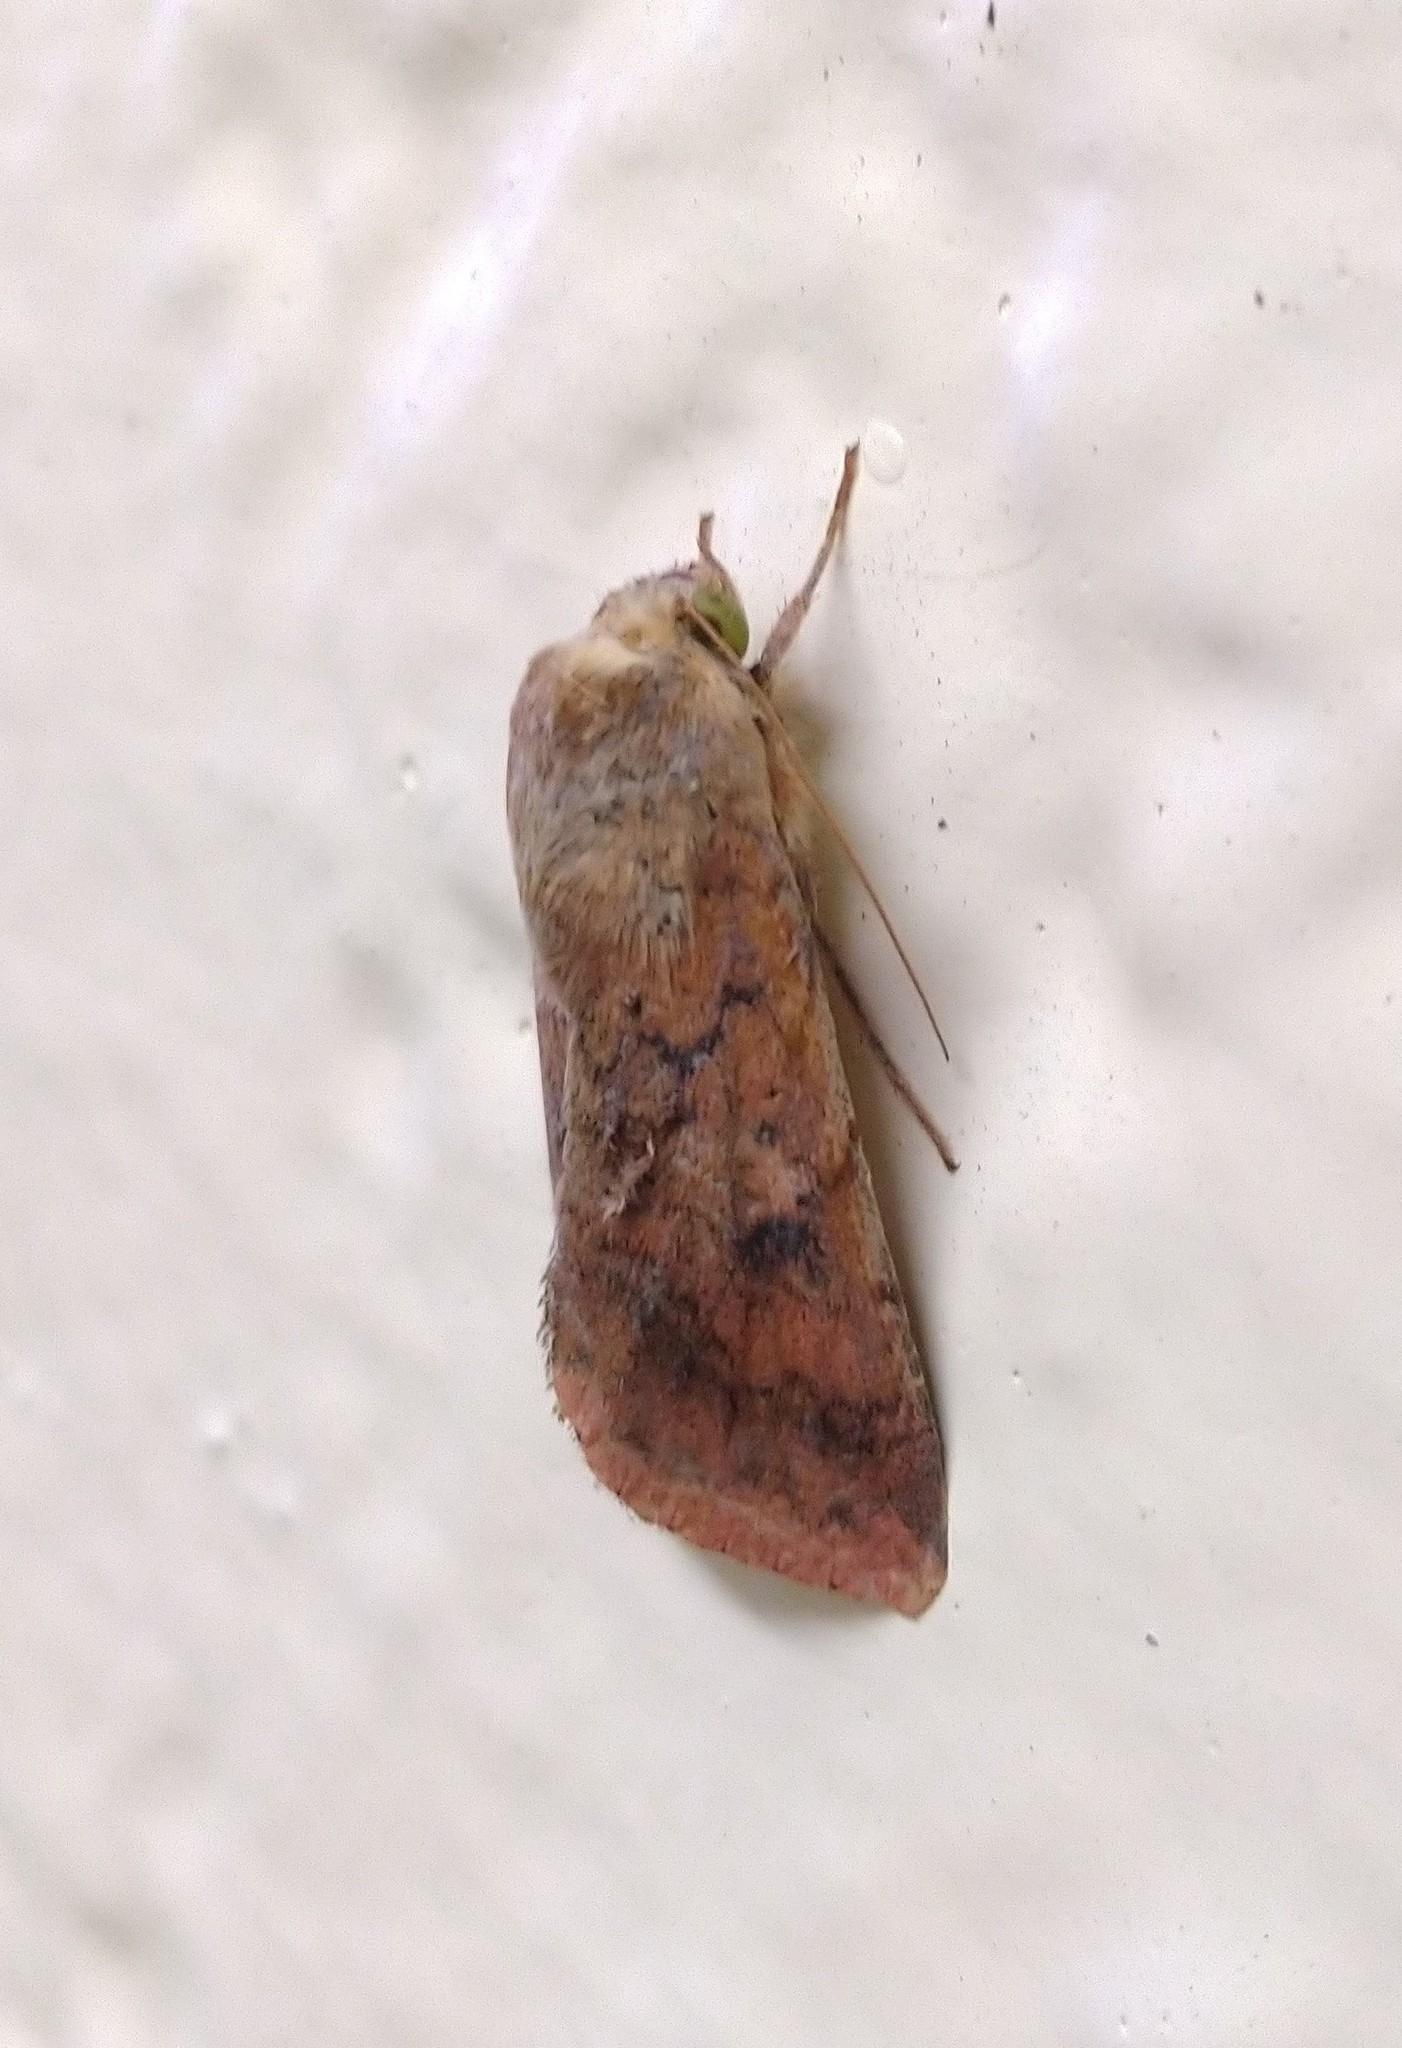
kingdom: Animalia
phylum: Arthropoda
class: Insecta
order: Lepidoptera
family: Noctuidae
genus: Helicoverpa
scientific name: Helicoverpa armigera
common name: Cotton bollworm
